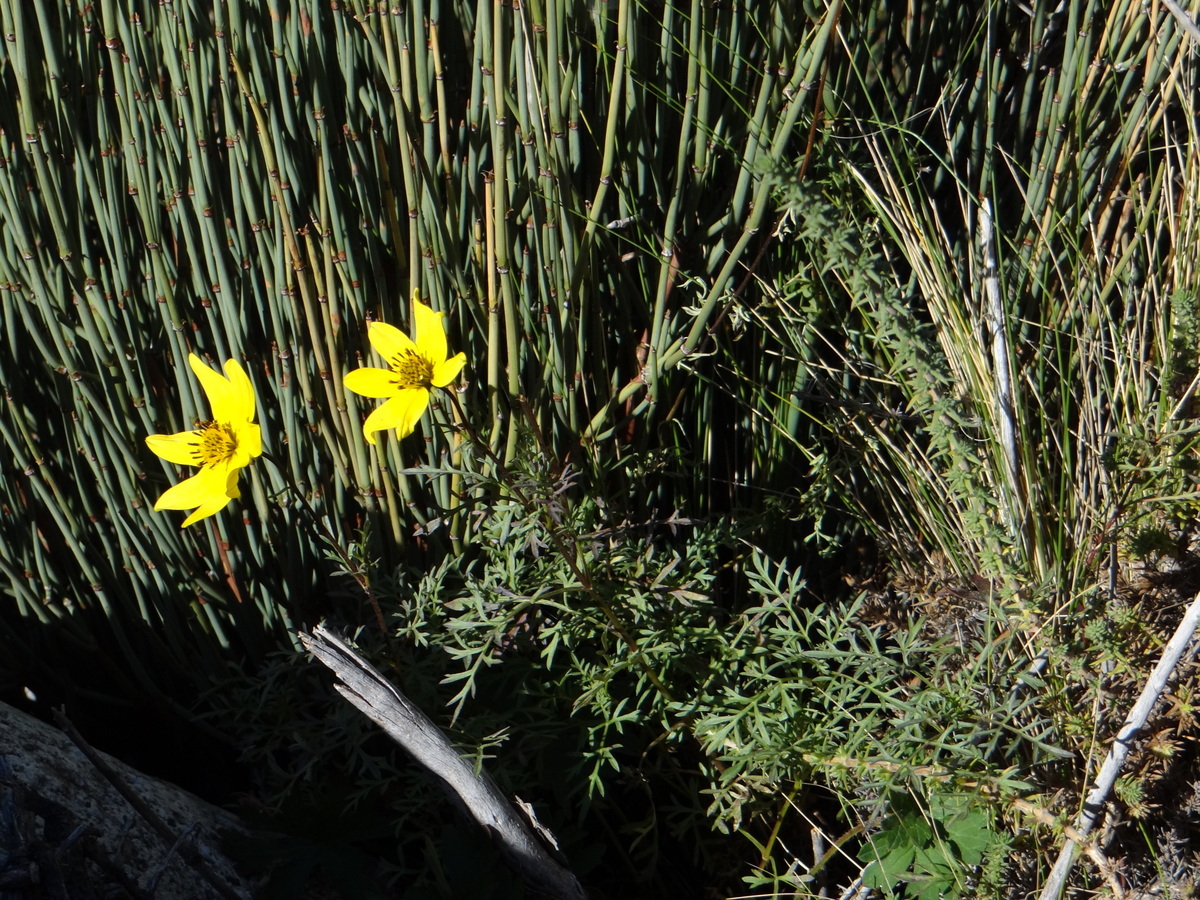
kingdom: Plantae
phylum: Tracheophyta
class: Magnoliopsida
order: Asterales
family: Asteraceae
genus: Bidens
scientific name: Bidens triplinervia
